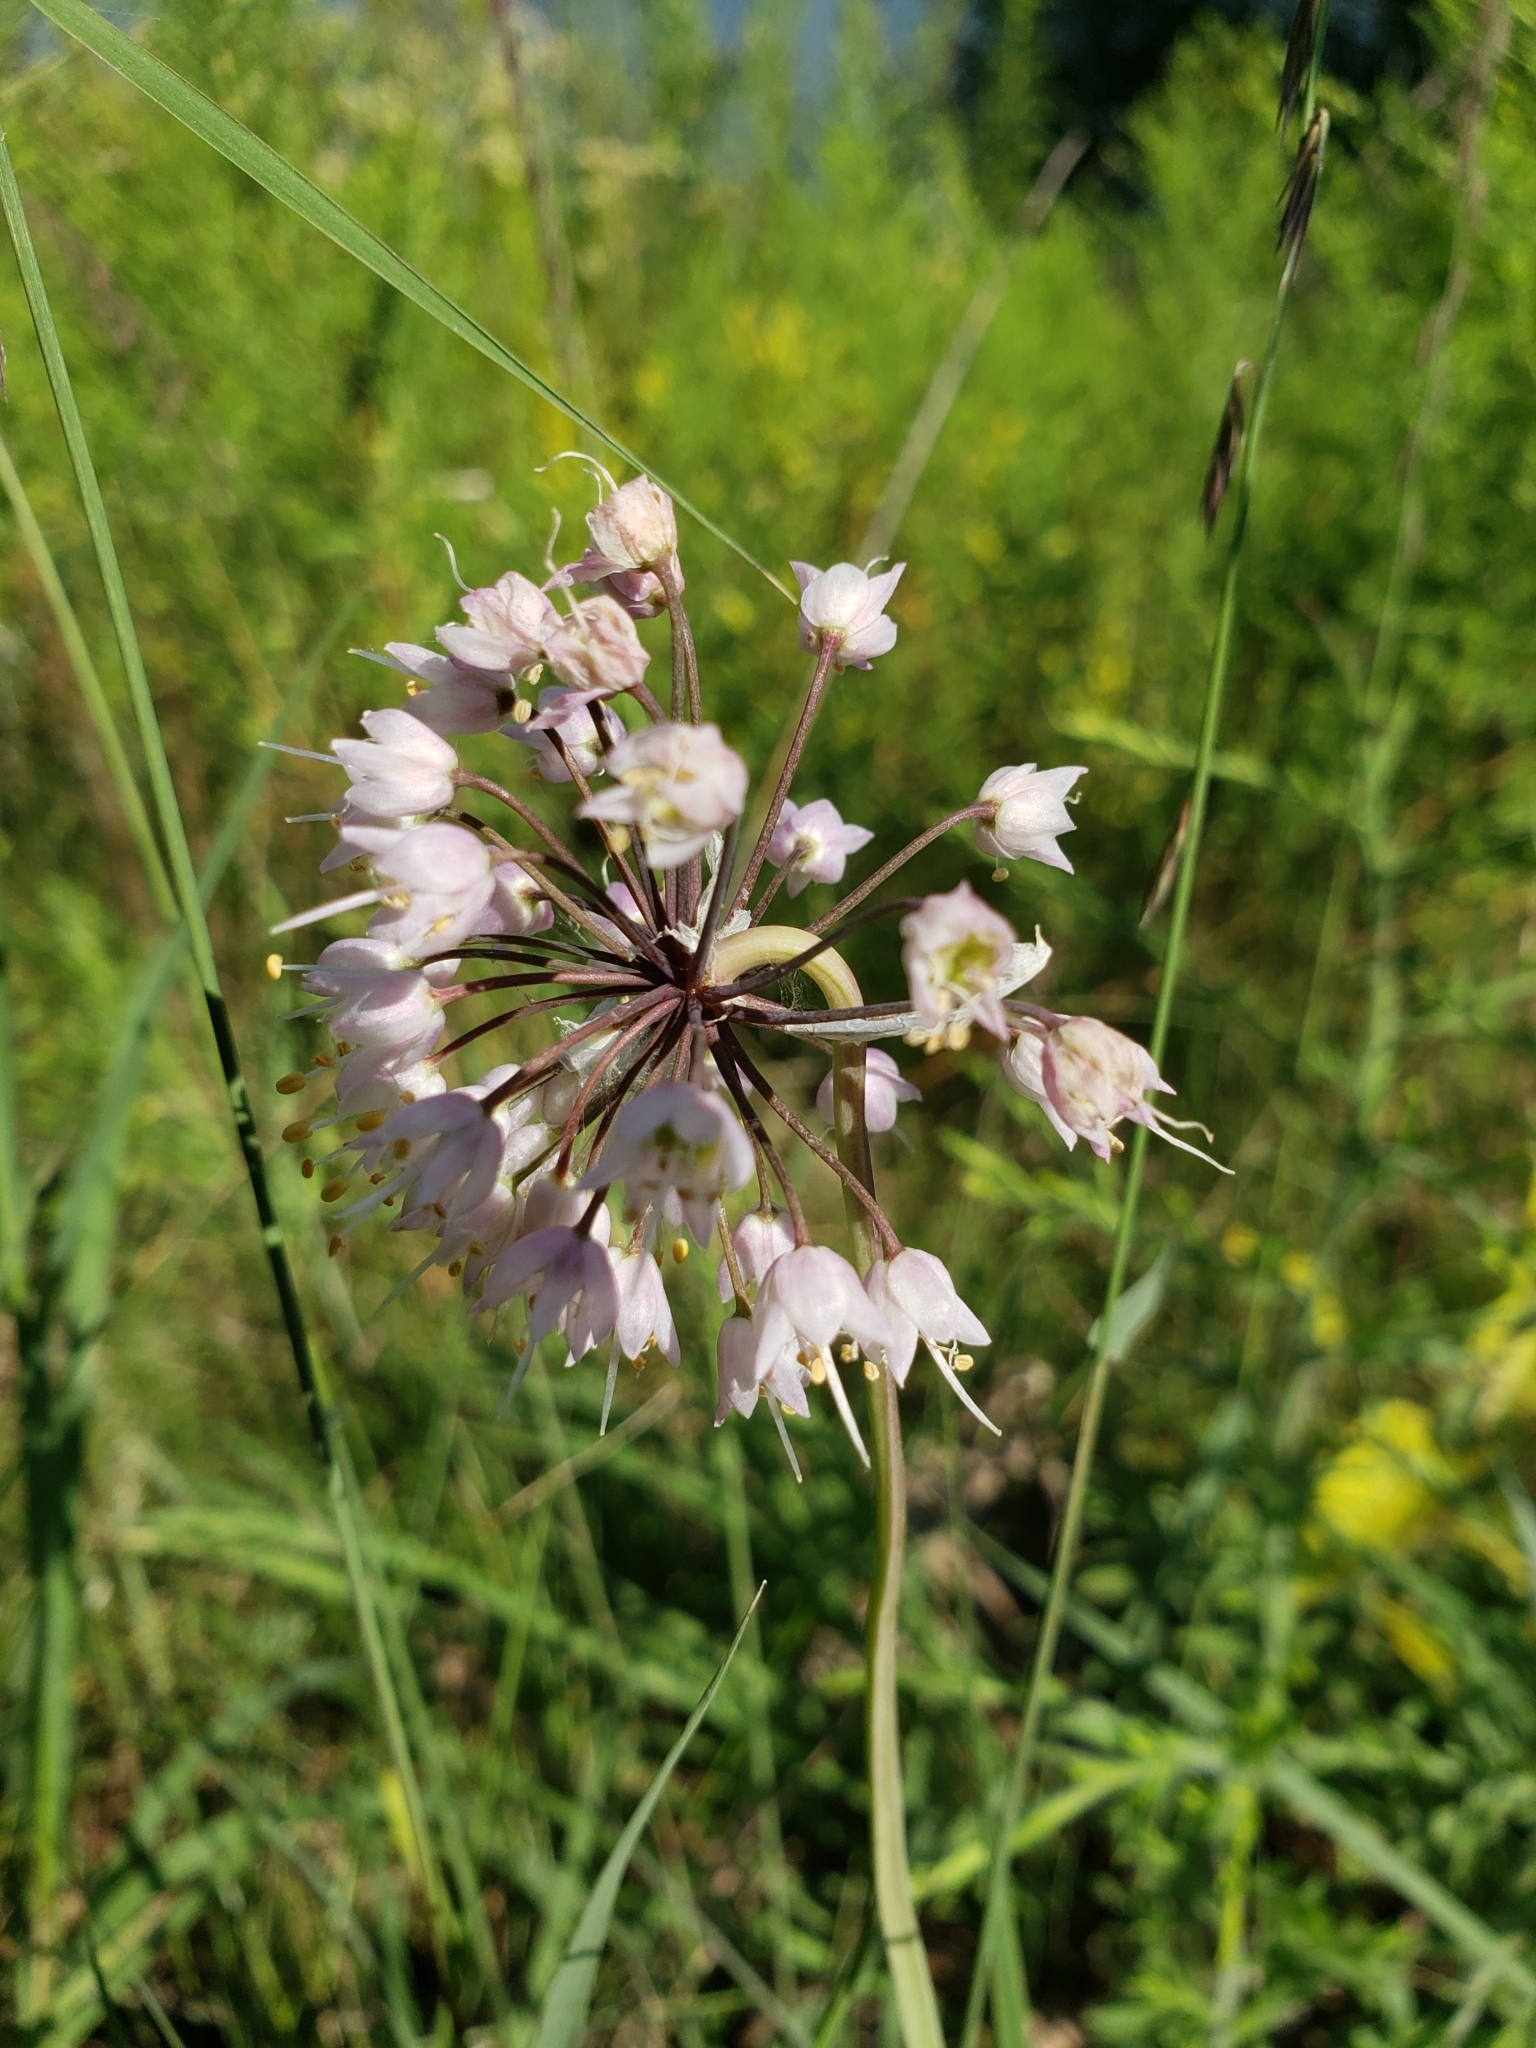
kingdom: Plantae
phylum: Tracheophyta
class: Liliopsida
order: Asparagales
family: Amaryllidaceae
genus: Allium
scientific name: Allium cernuum
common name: Nodding onion
